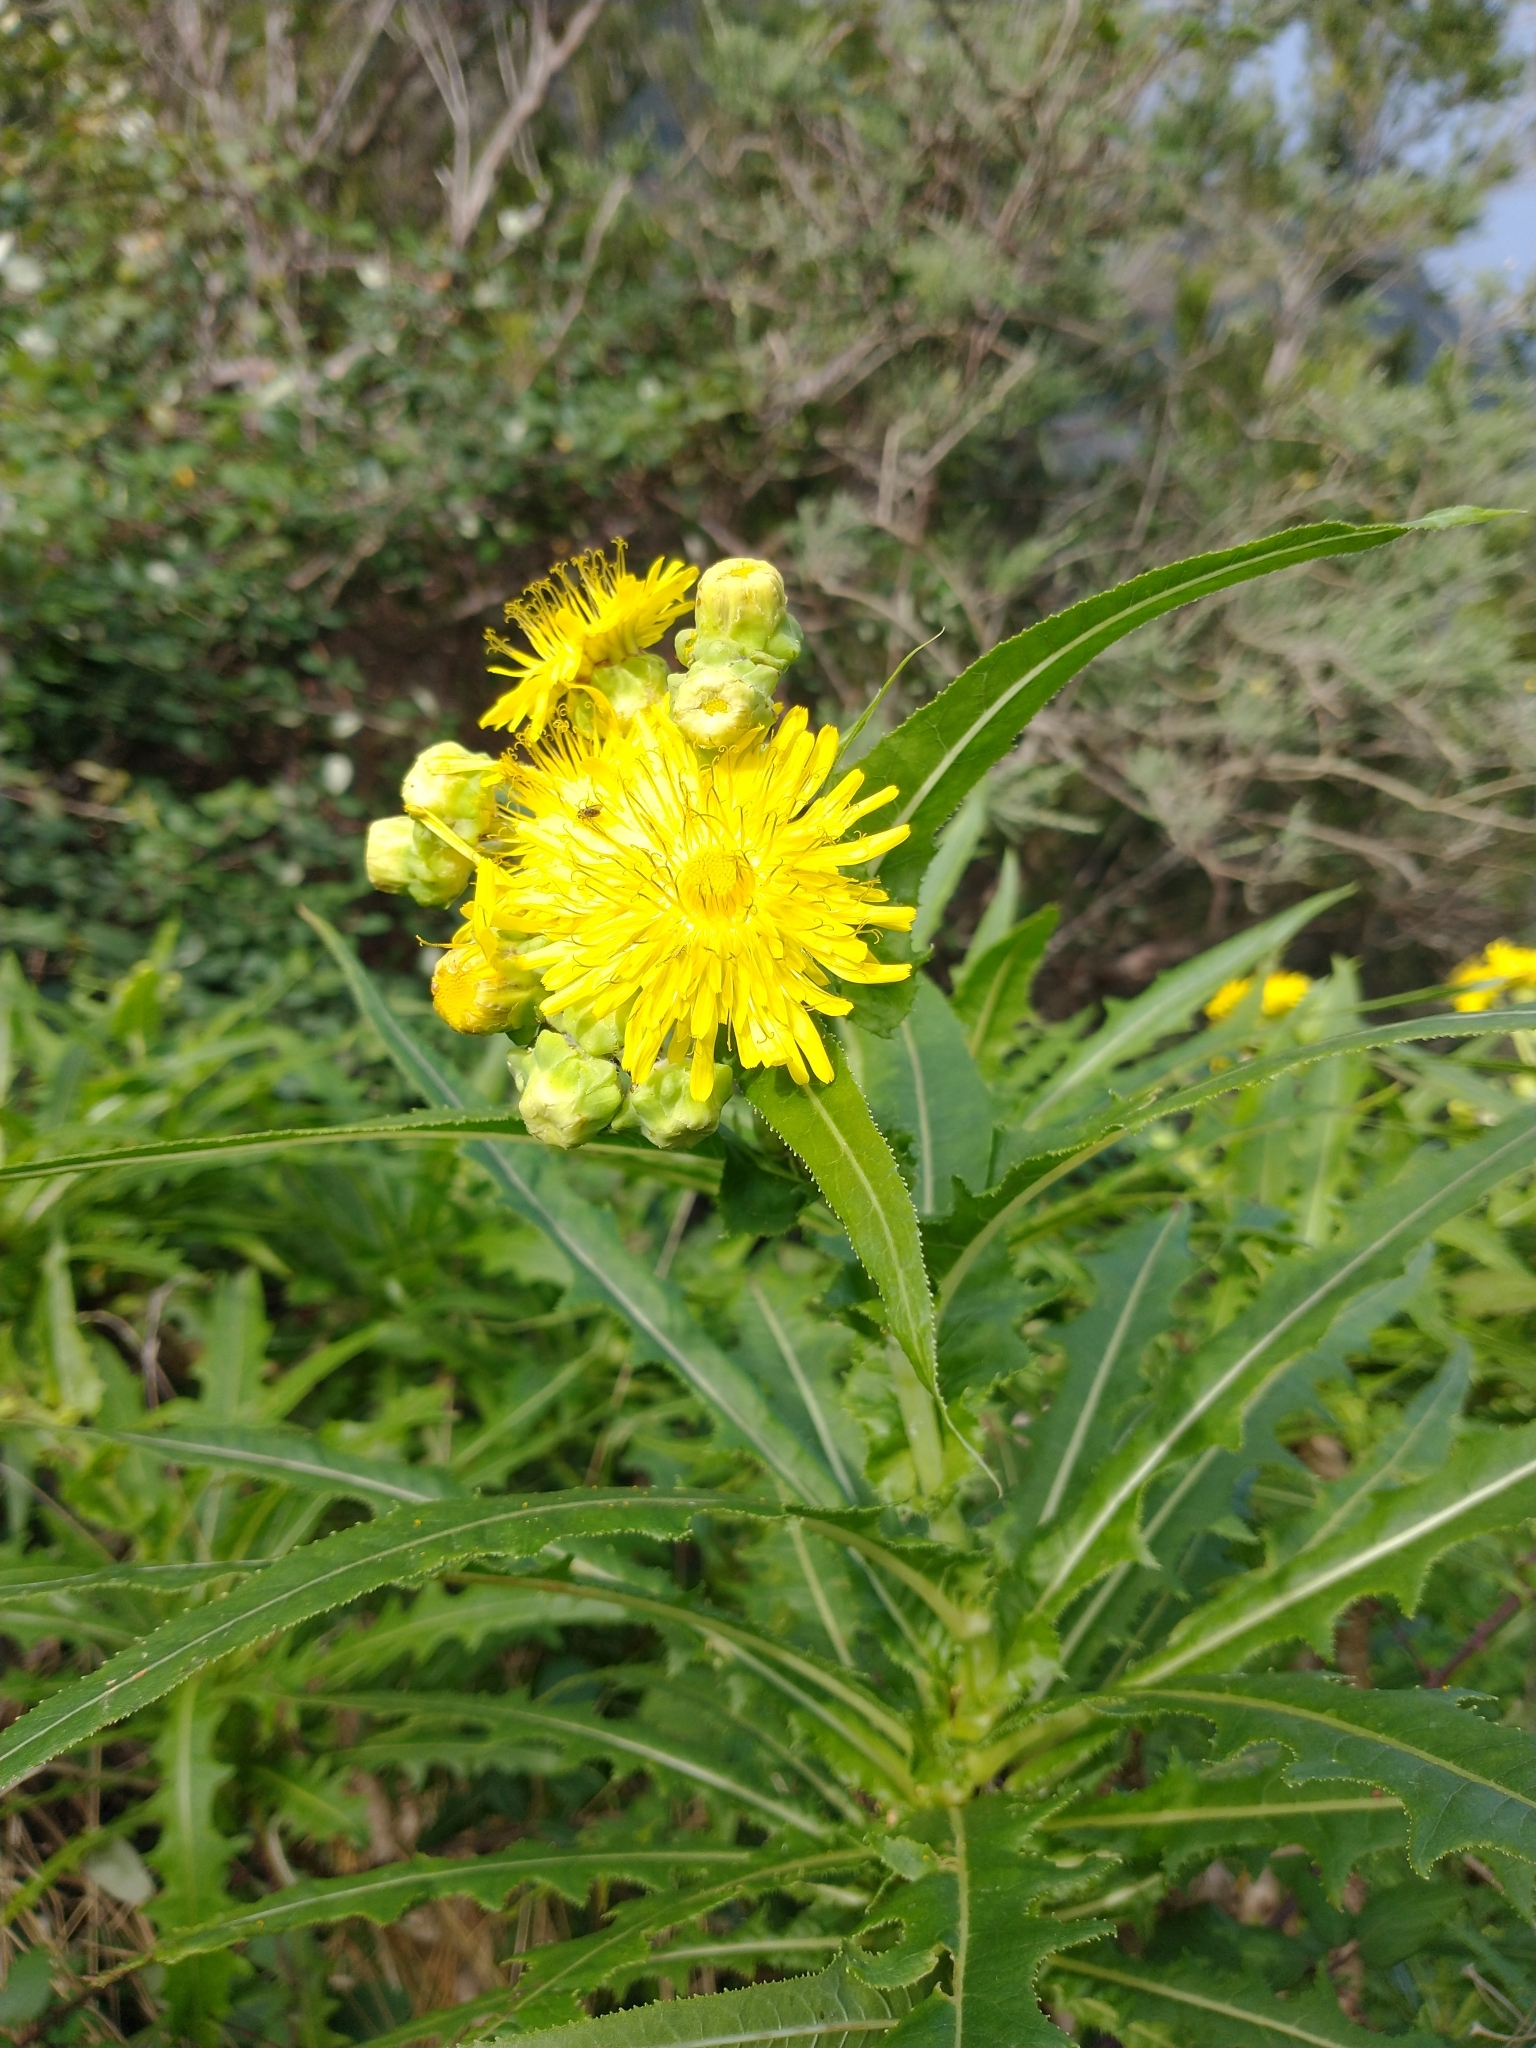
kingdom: Plantae
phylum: Tracheophyta
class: Magnoliopsida
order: Asterales
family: Asteraceae
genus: Sonchus
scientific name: Sonchus congestus
